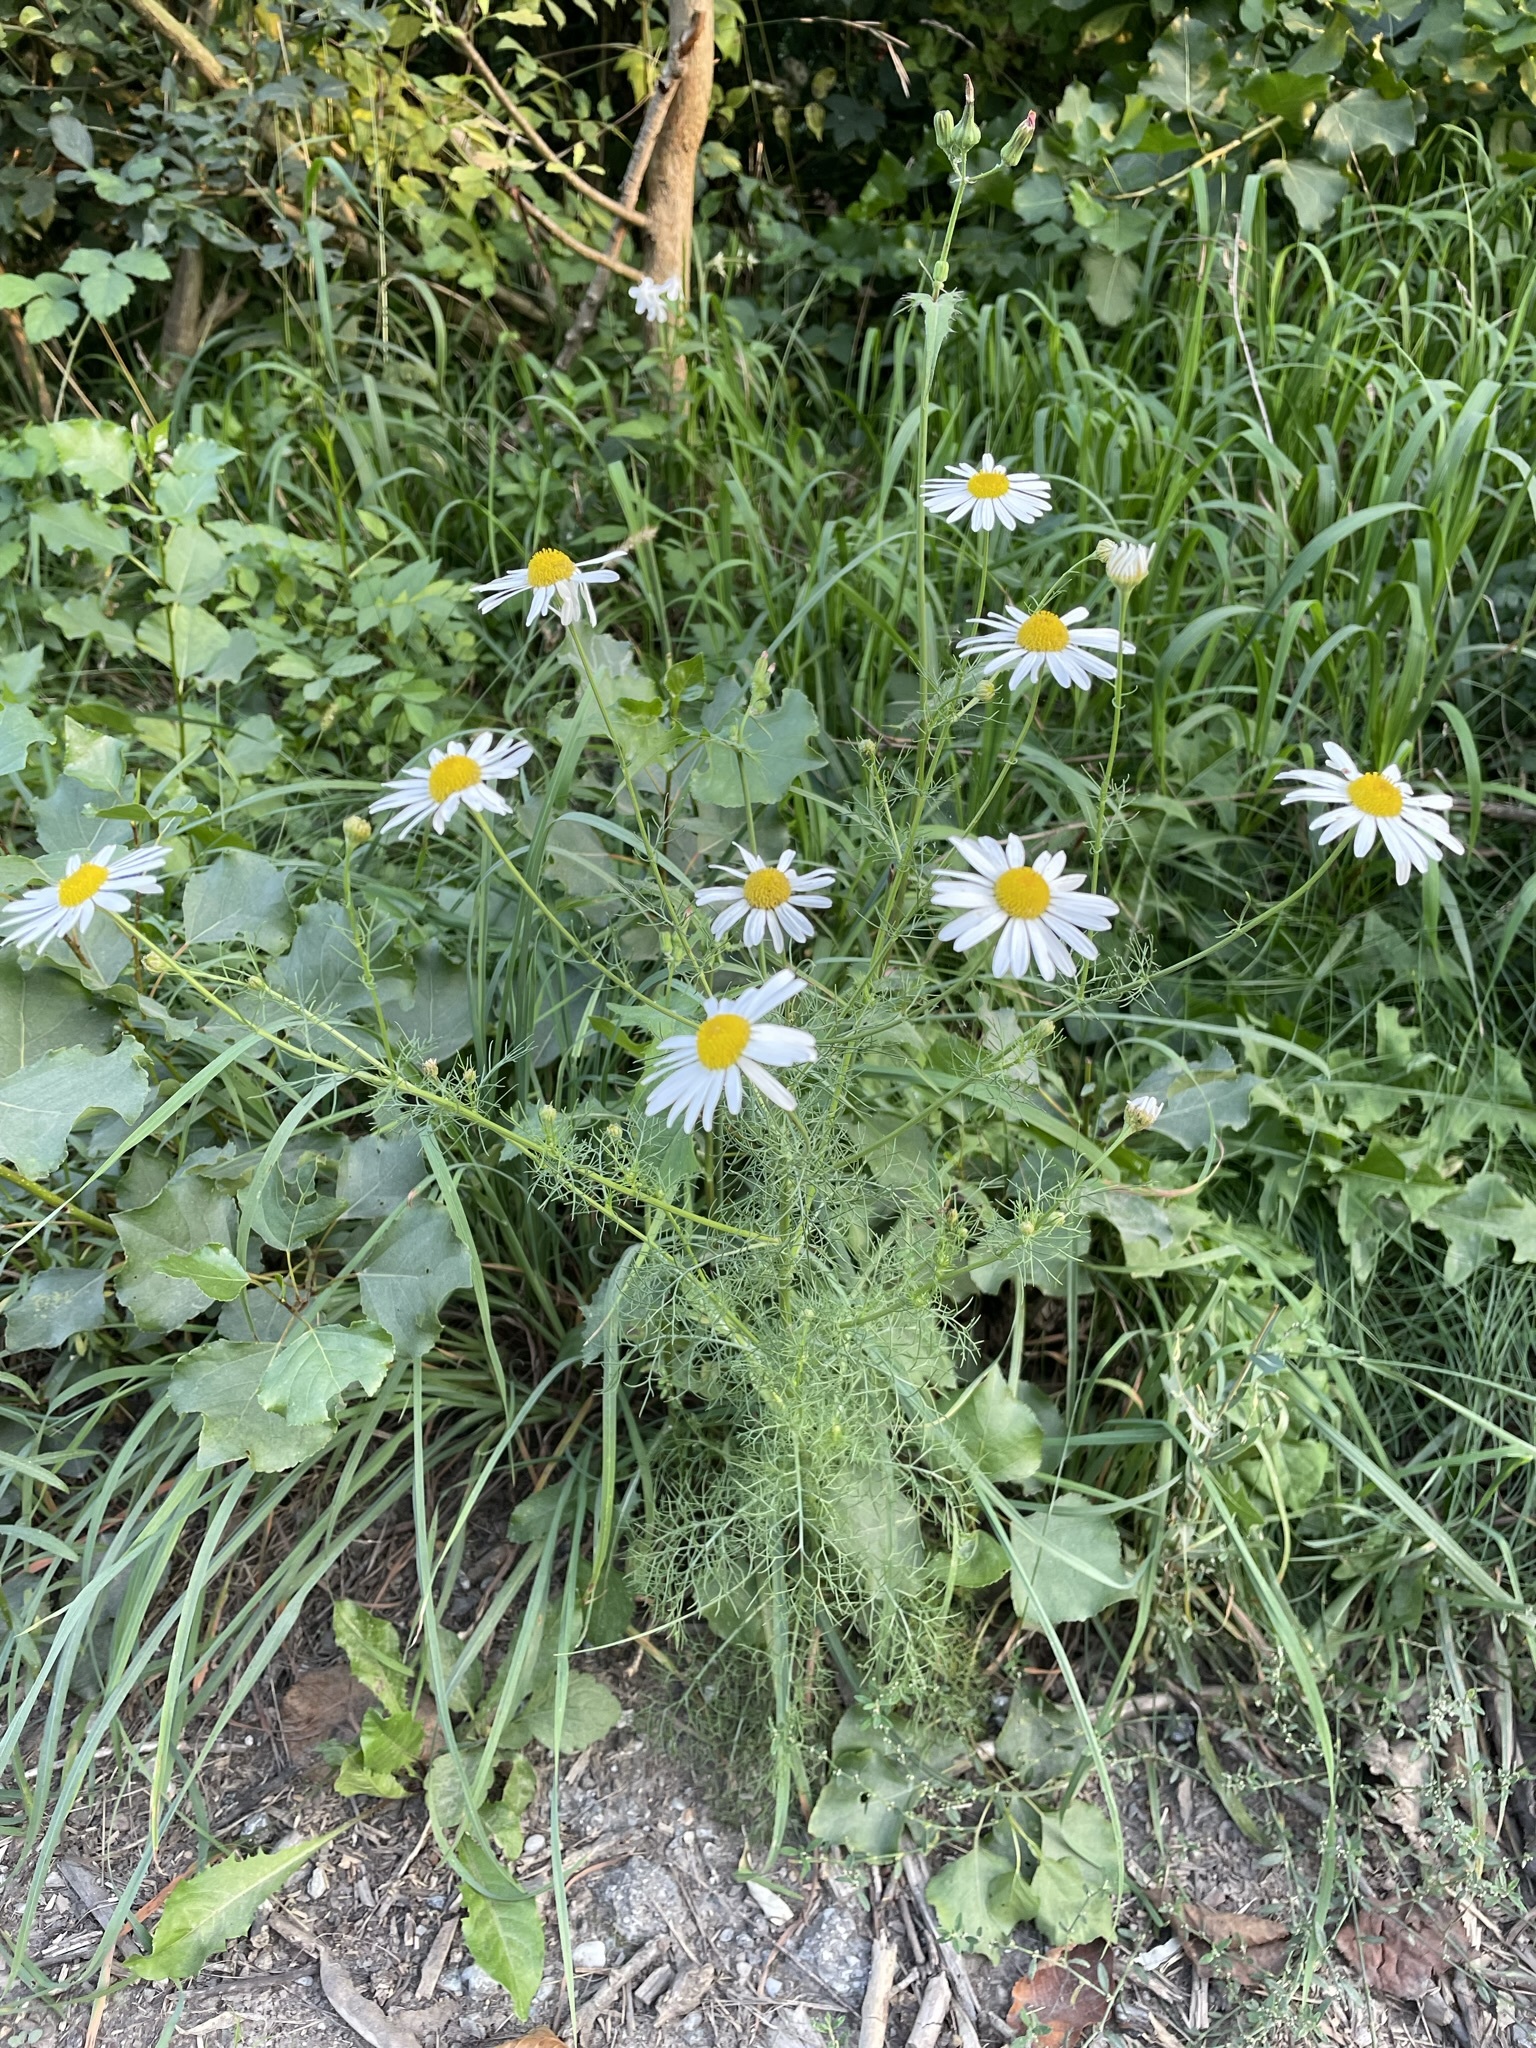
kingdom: Plantae
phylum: Tracheophyta
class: Magnoliopsida
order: Asterales
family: Asteraceae
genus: Tripleurospermum
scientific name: Tripleurospermum inodorum
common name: Scentless mayweed
